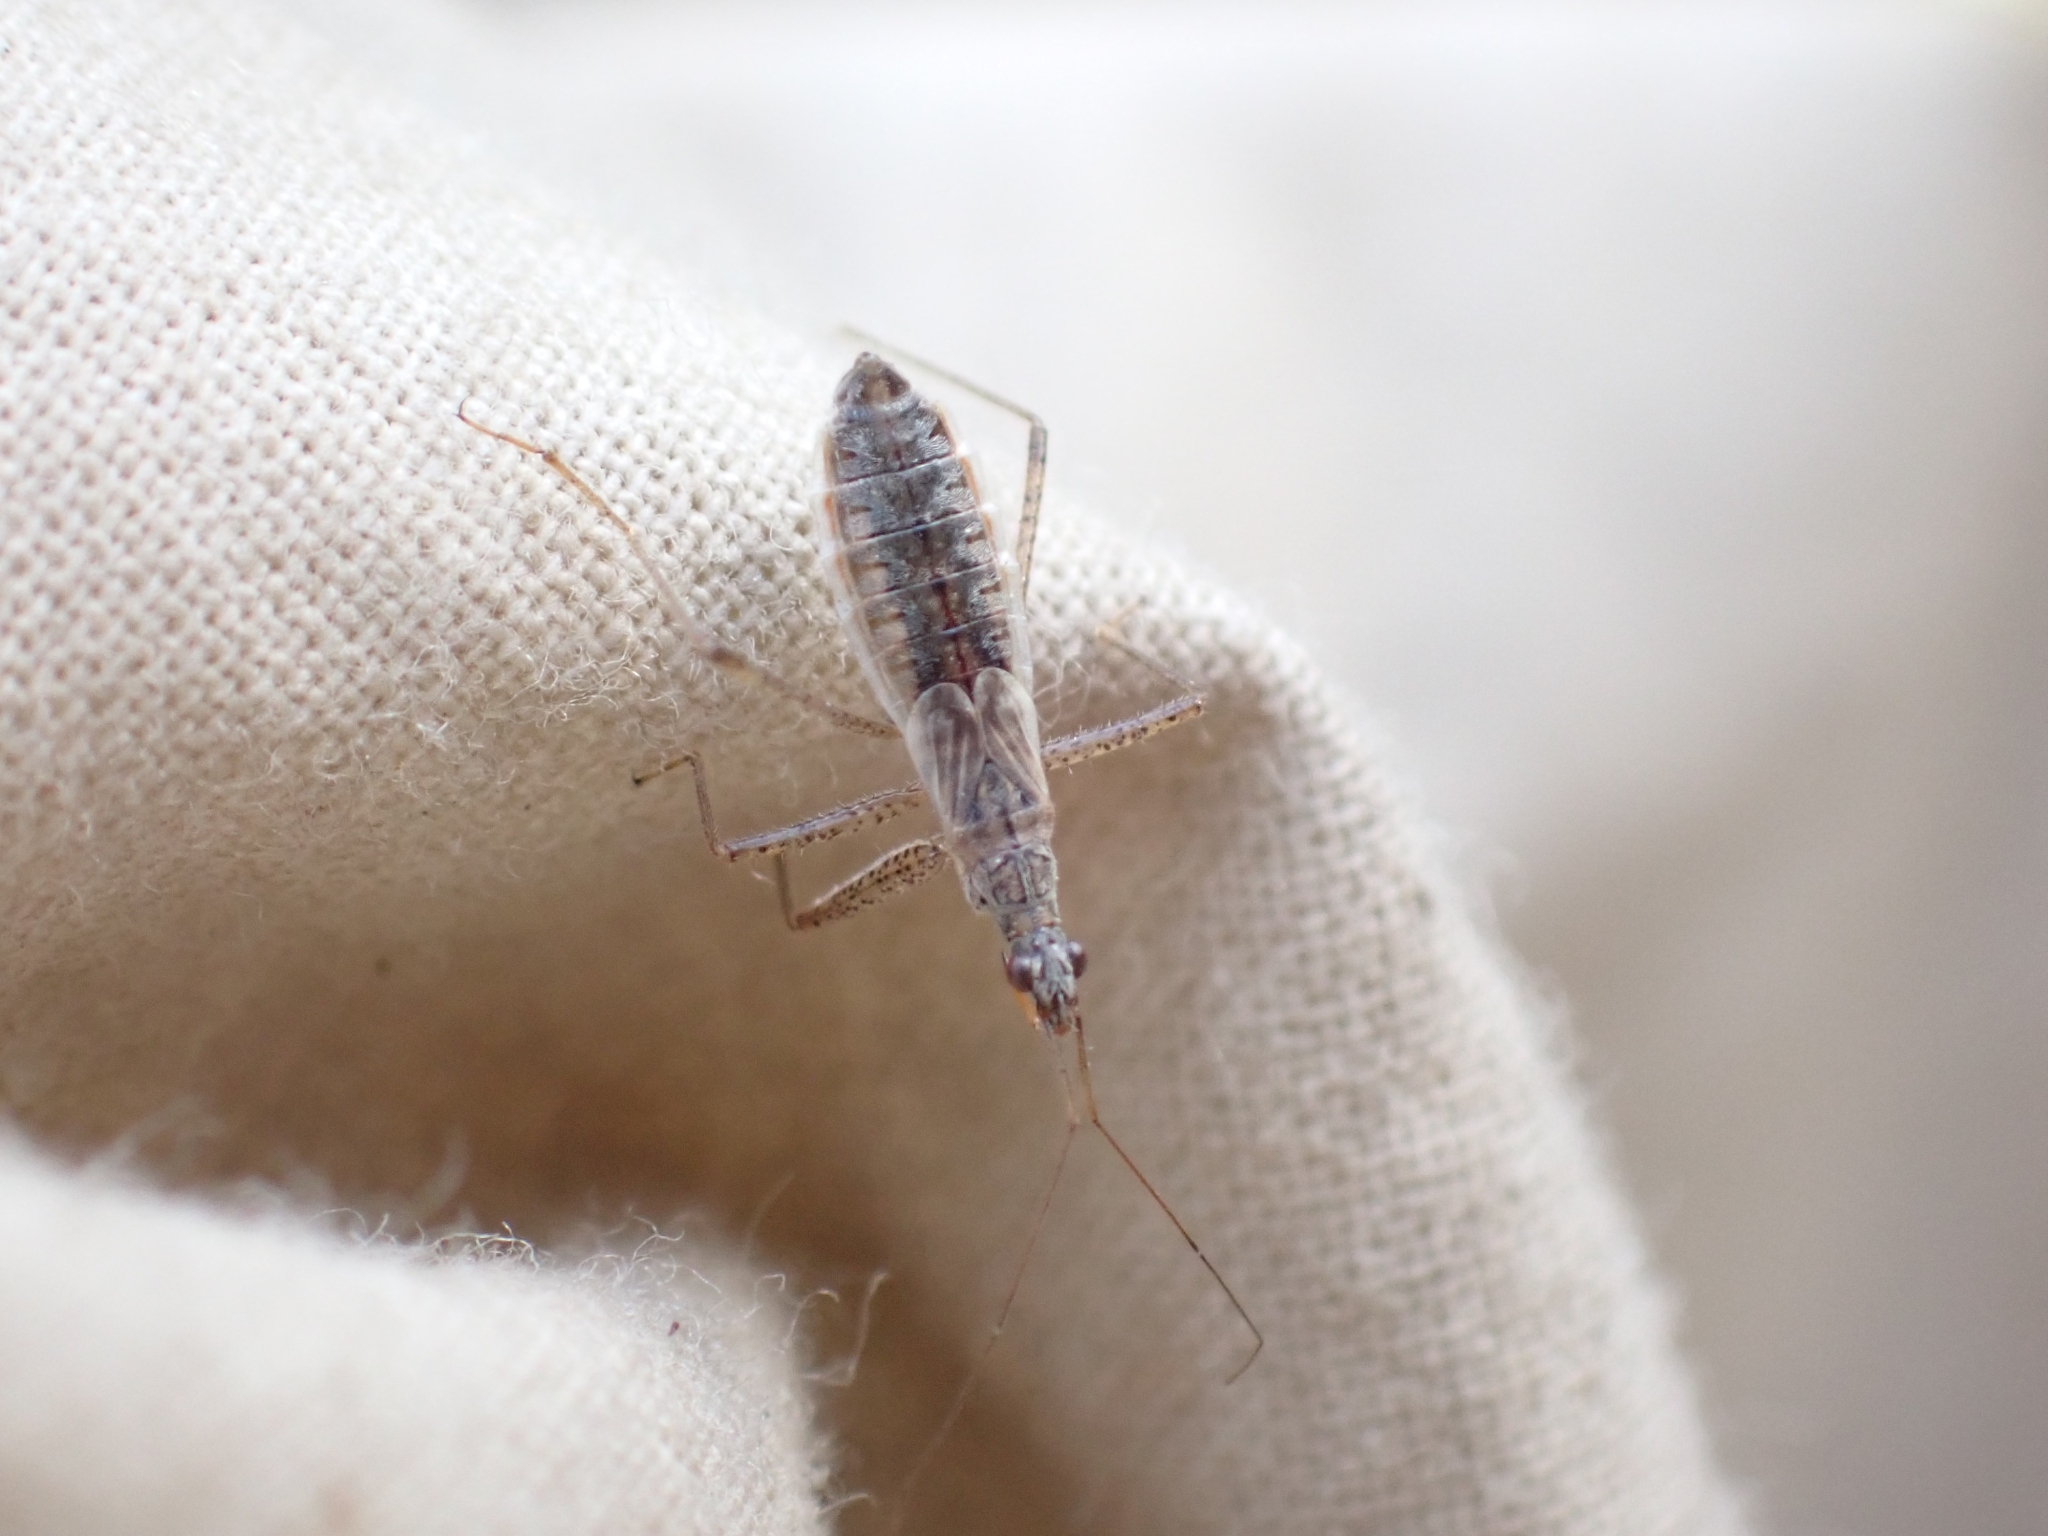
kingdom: Animalia
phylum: Arthropoda
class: Insecta
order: Hemiptera
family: Nabidae
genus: Nabicula
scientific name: Nabicula nigrovittata
